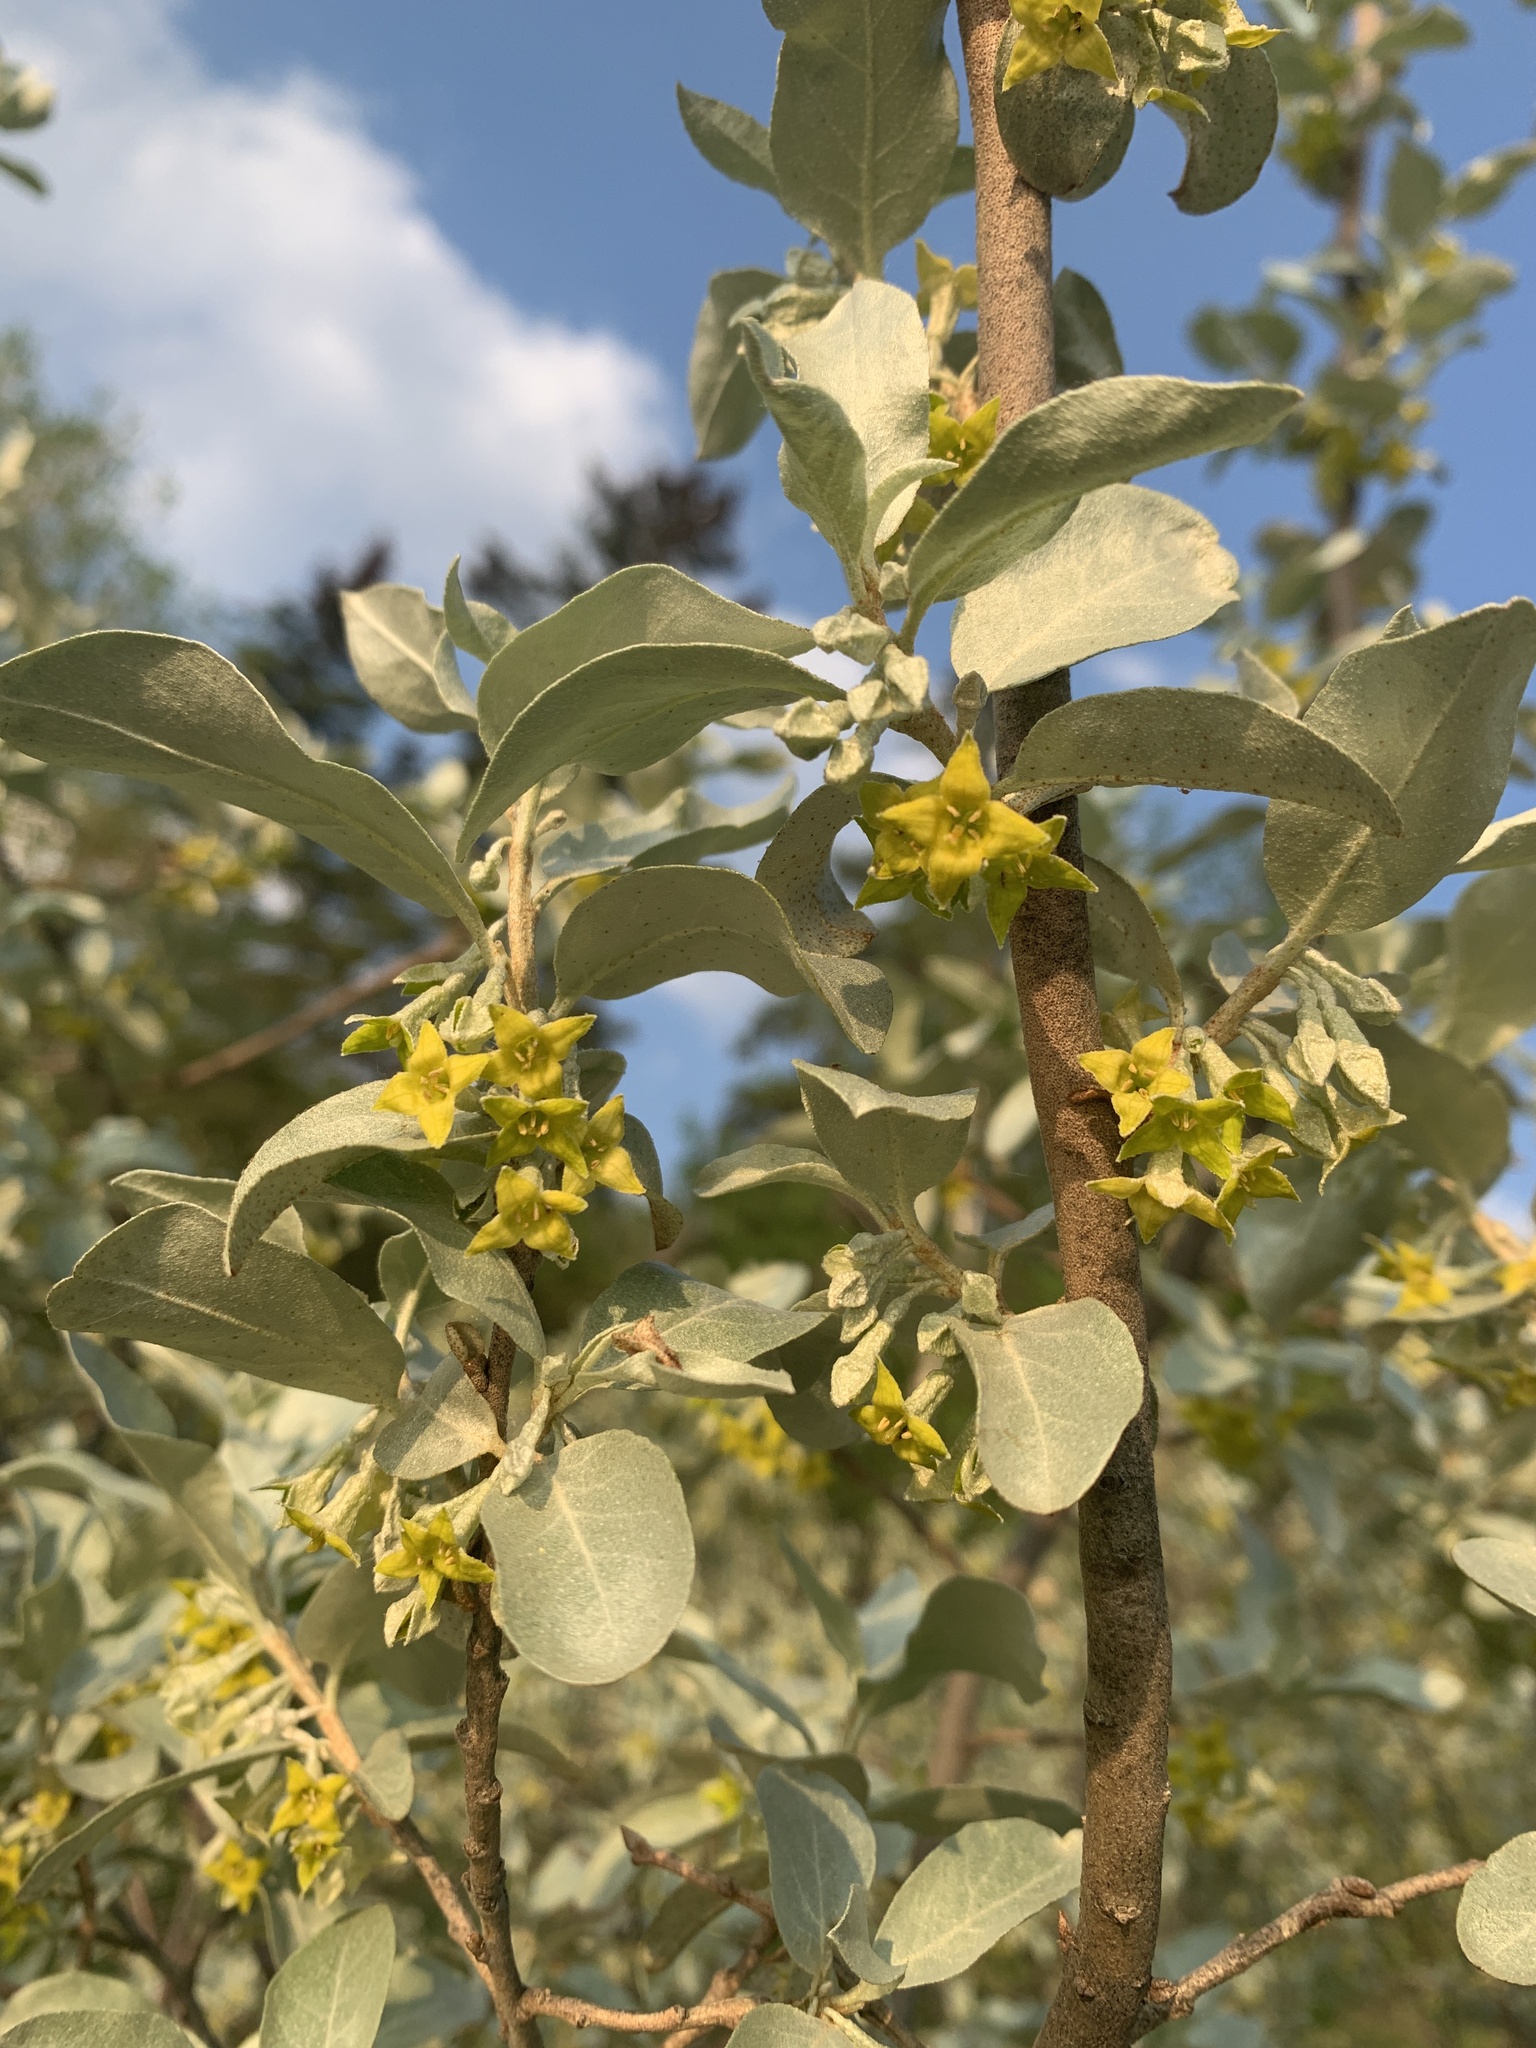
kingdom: Plantae
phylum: Tracheophyta
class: Magnoliopsida
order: Rosales
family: Elaeagnaceae
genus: Elaeagnus
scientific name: Elaeagnus commutata
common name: Silverberry
